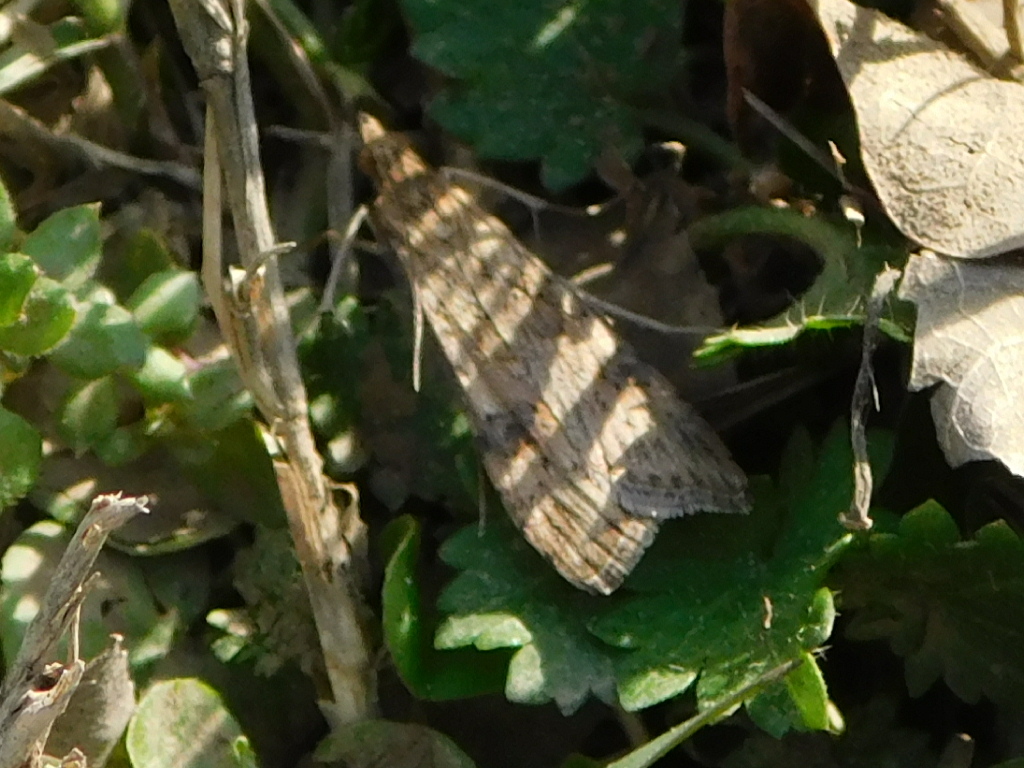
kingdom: Animalia
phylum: Arthropoda
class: Insecta
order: Lepidoptera
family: Crambidae
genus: Nomophila
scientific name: Nomophila nearctica
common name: American rush veneer
